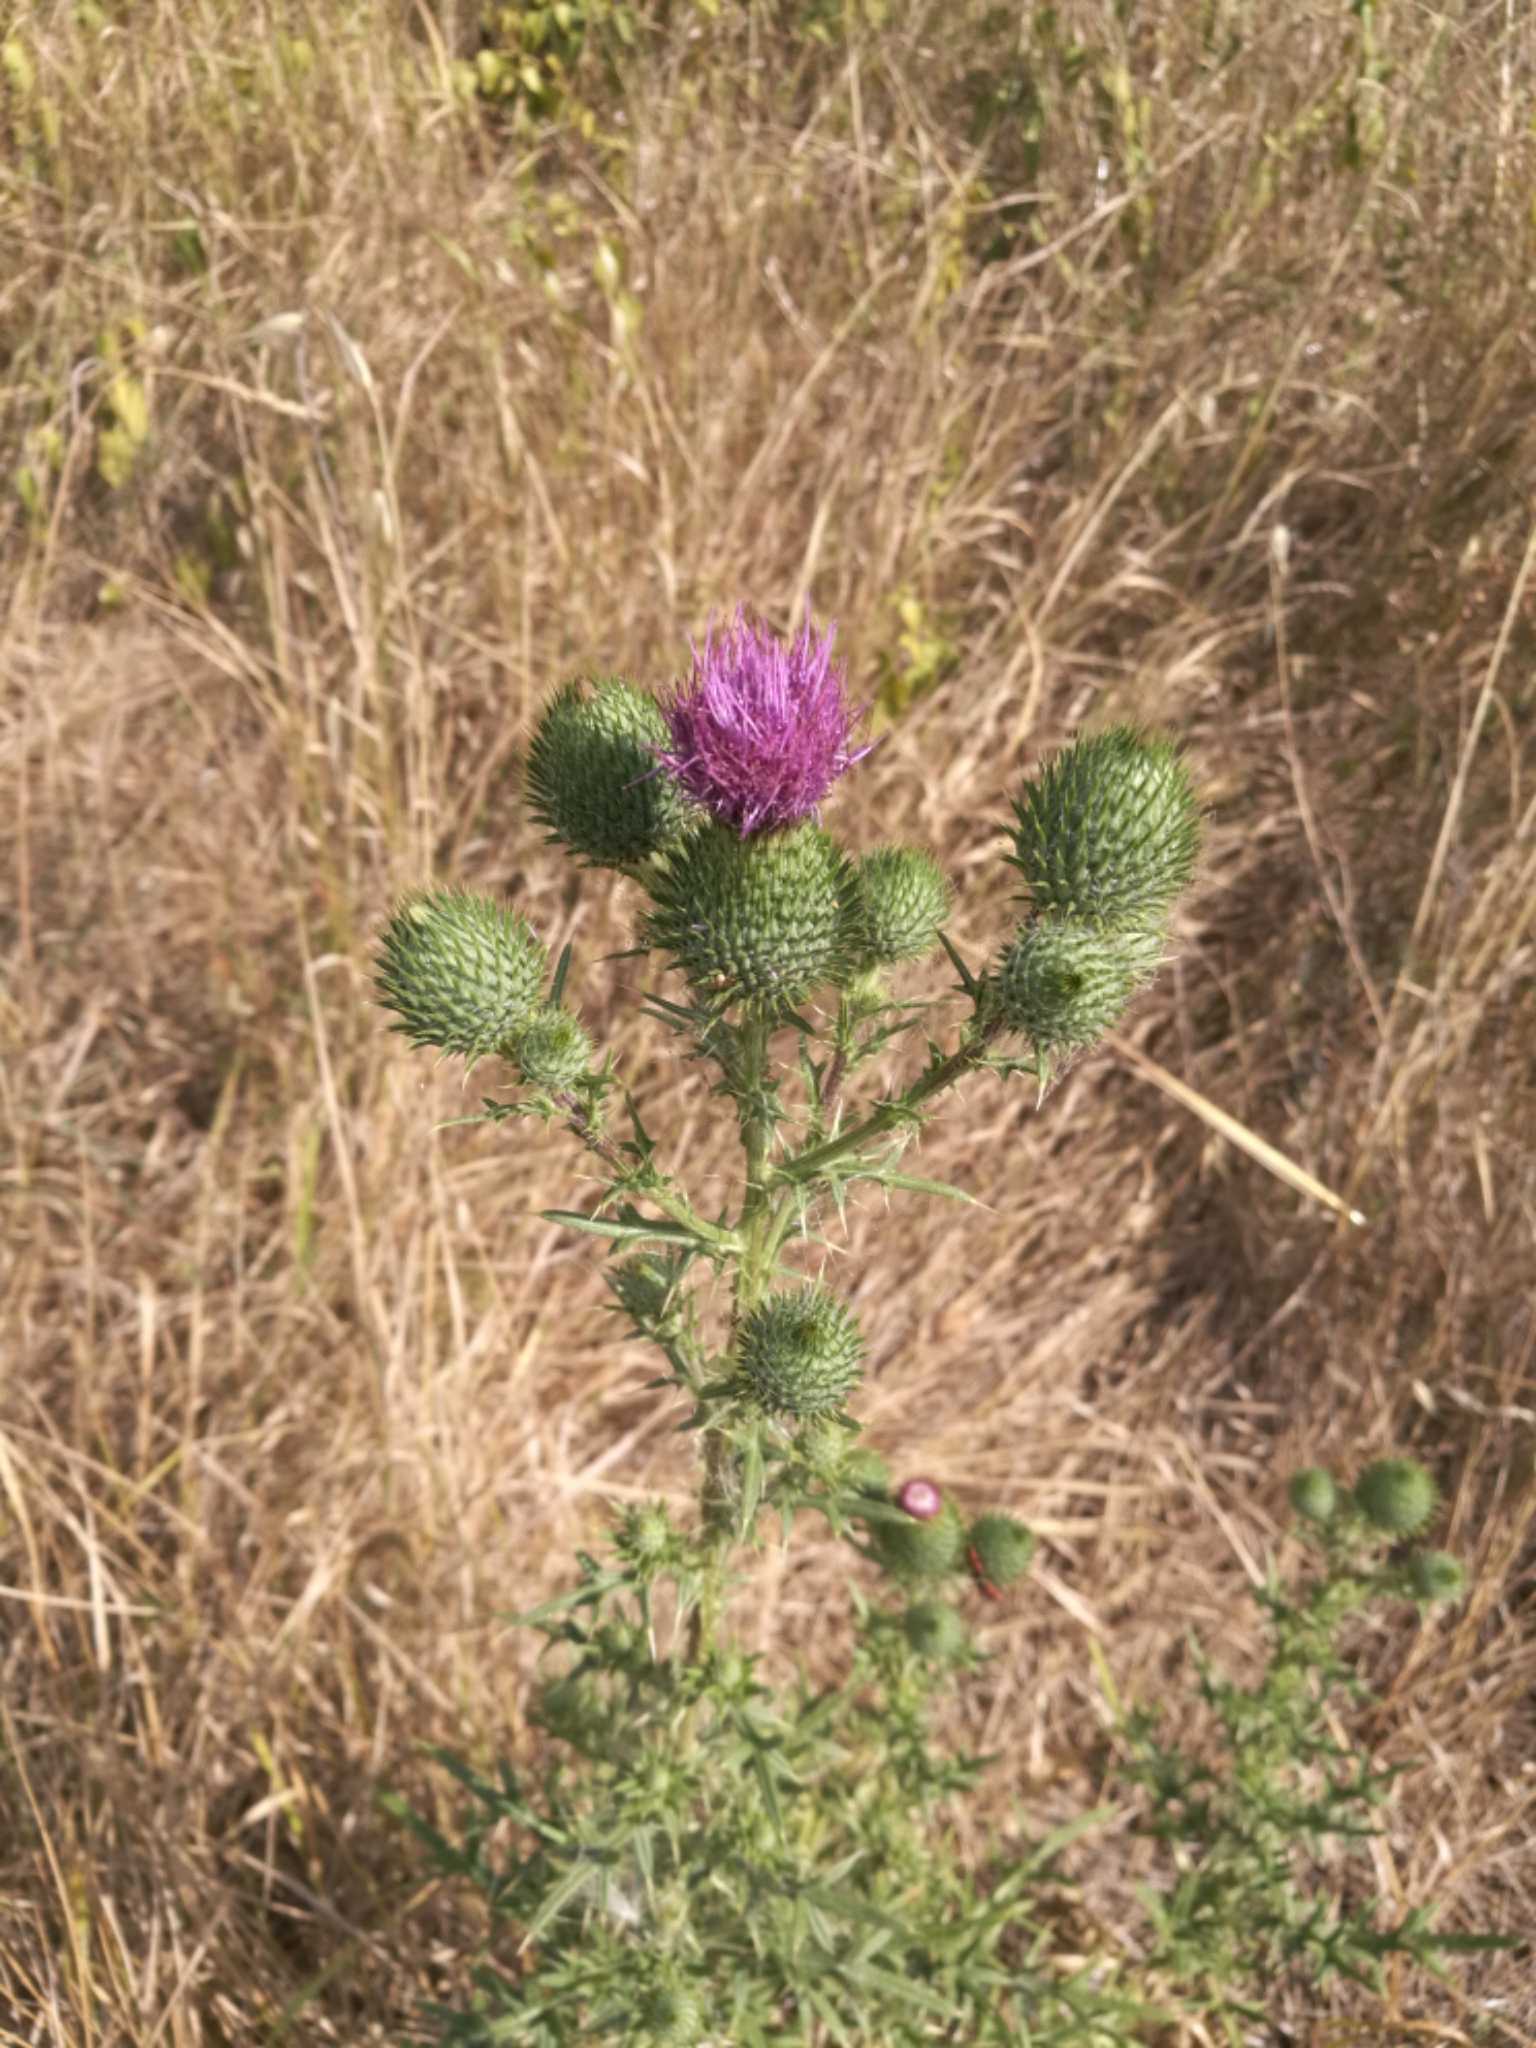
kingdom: Plantae
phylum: Tracheophyta
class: Magnoliopsida
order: Asterales
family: Asteraceae
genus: Cirsium
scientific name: Cirsium vulgare
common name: Bull thistle
